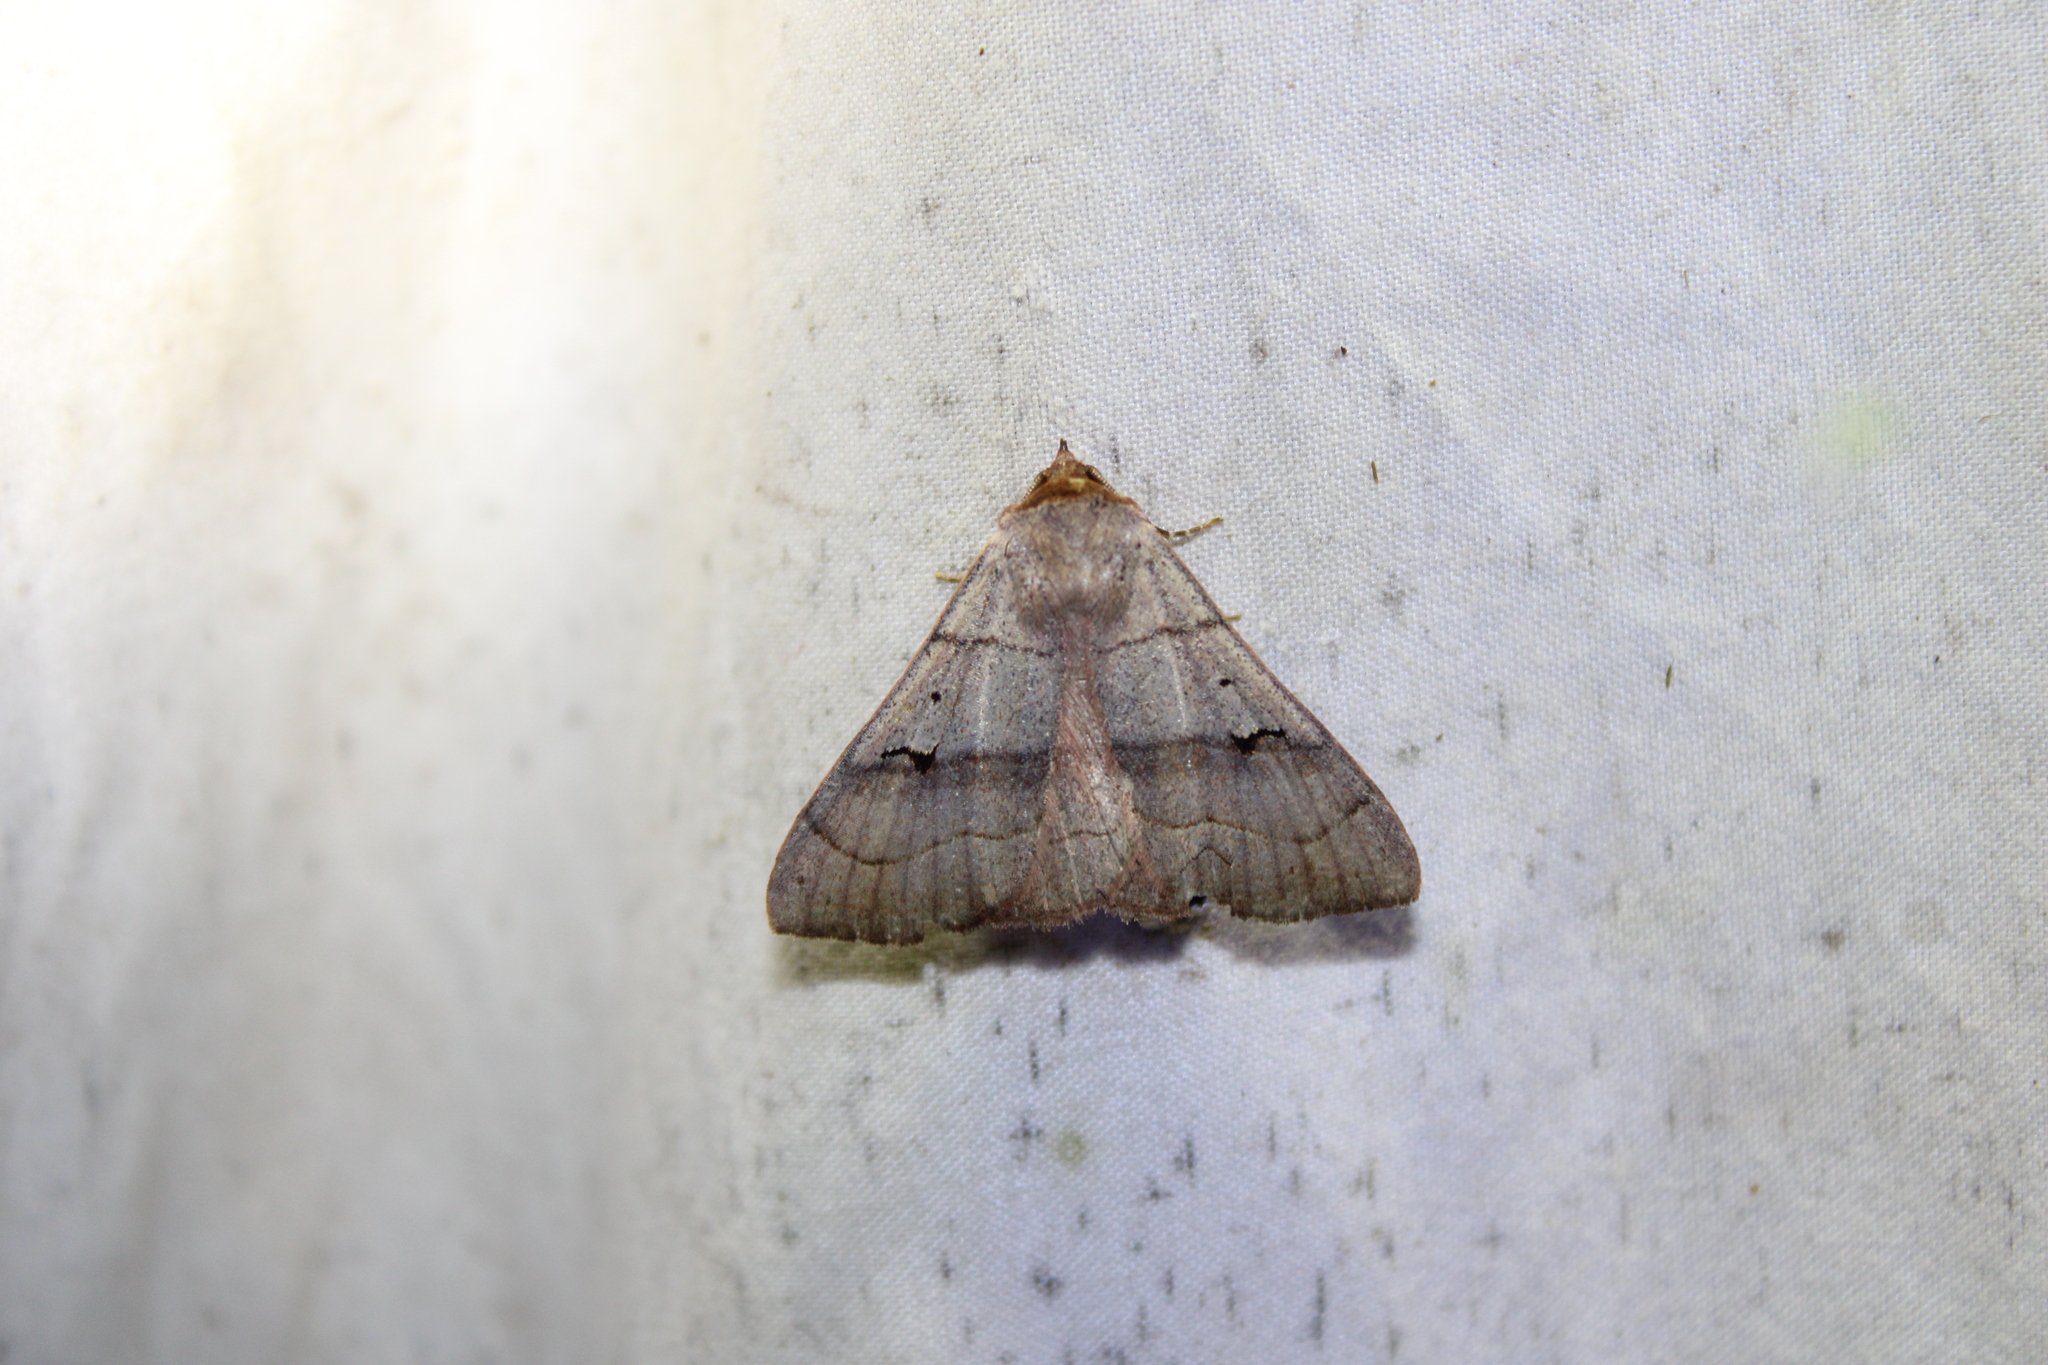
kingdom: Animalia
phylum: Arthropoda
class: Insecta
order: Lepidoptera
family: Erebidae
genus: Panopoda
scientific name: Panopoda carneicosta
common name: Brown panopoda moth
